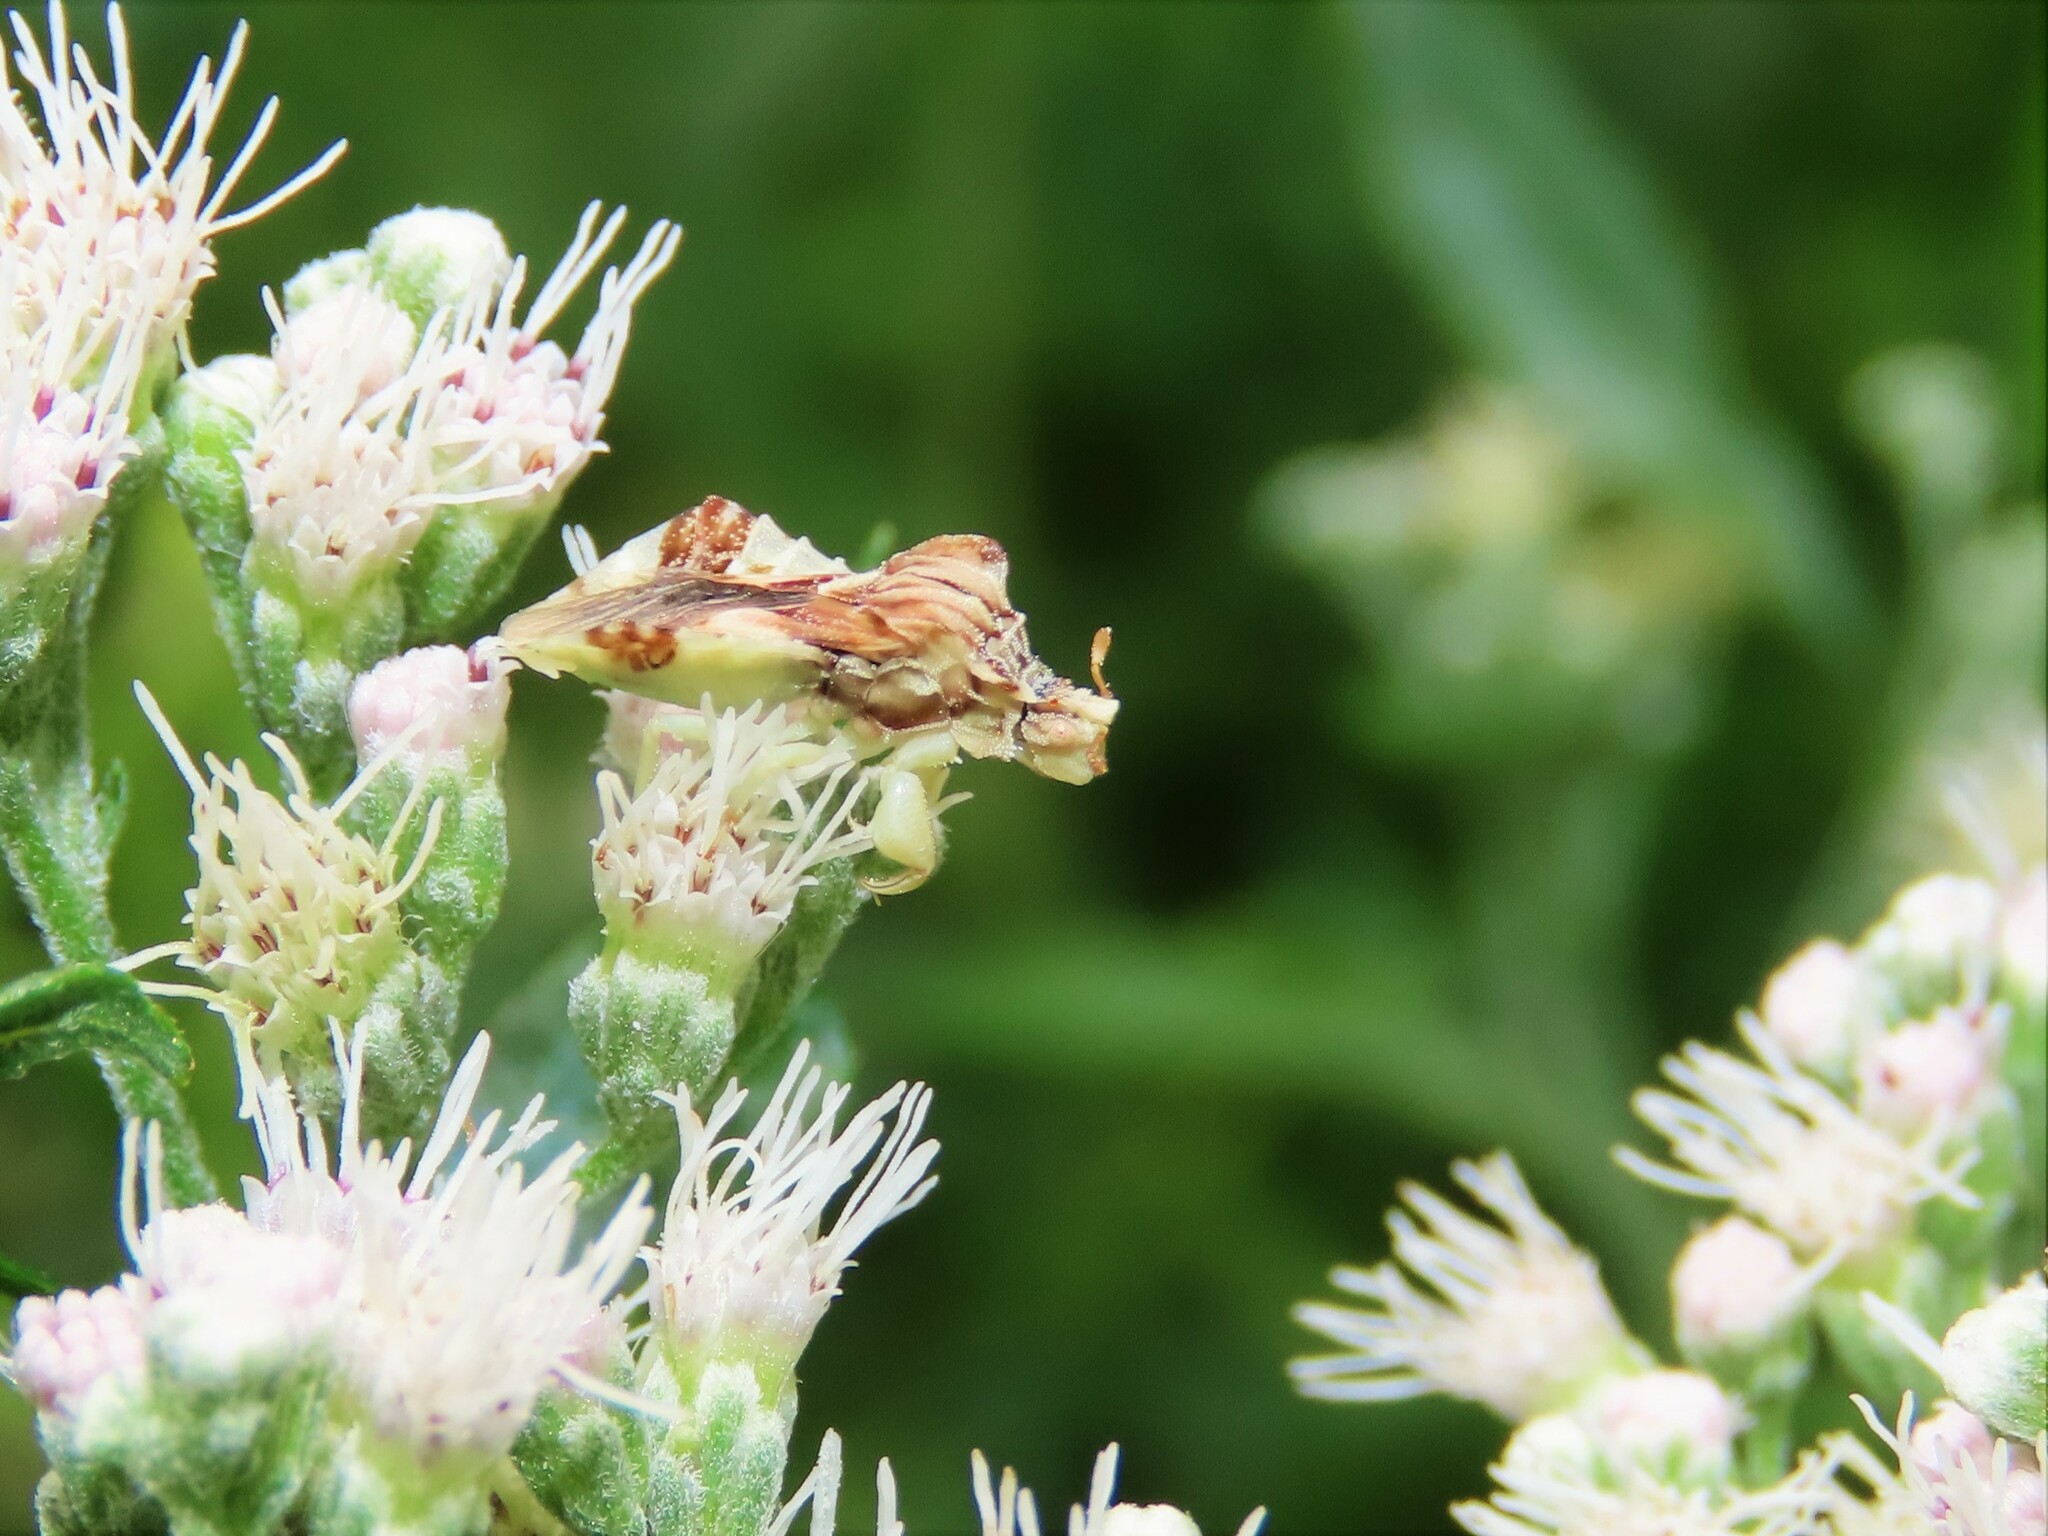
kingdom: Animalia
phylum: Arthropoda
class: Insecta
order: Hemiptera
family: Reduviidae
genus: Phymata
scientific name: Phymata fasciata
